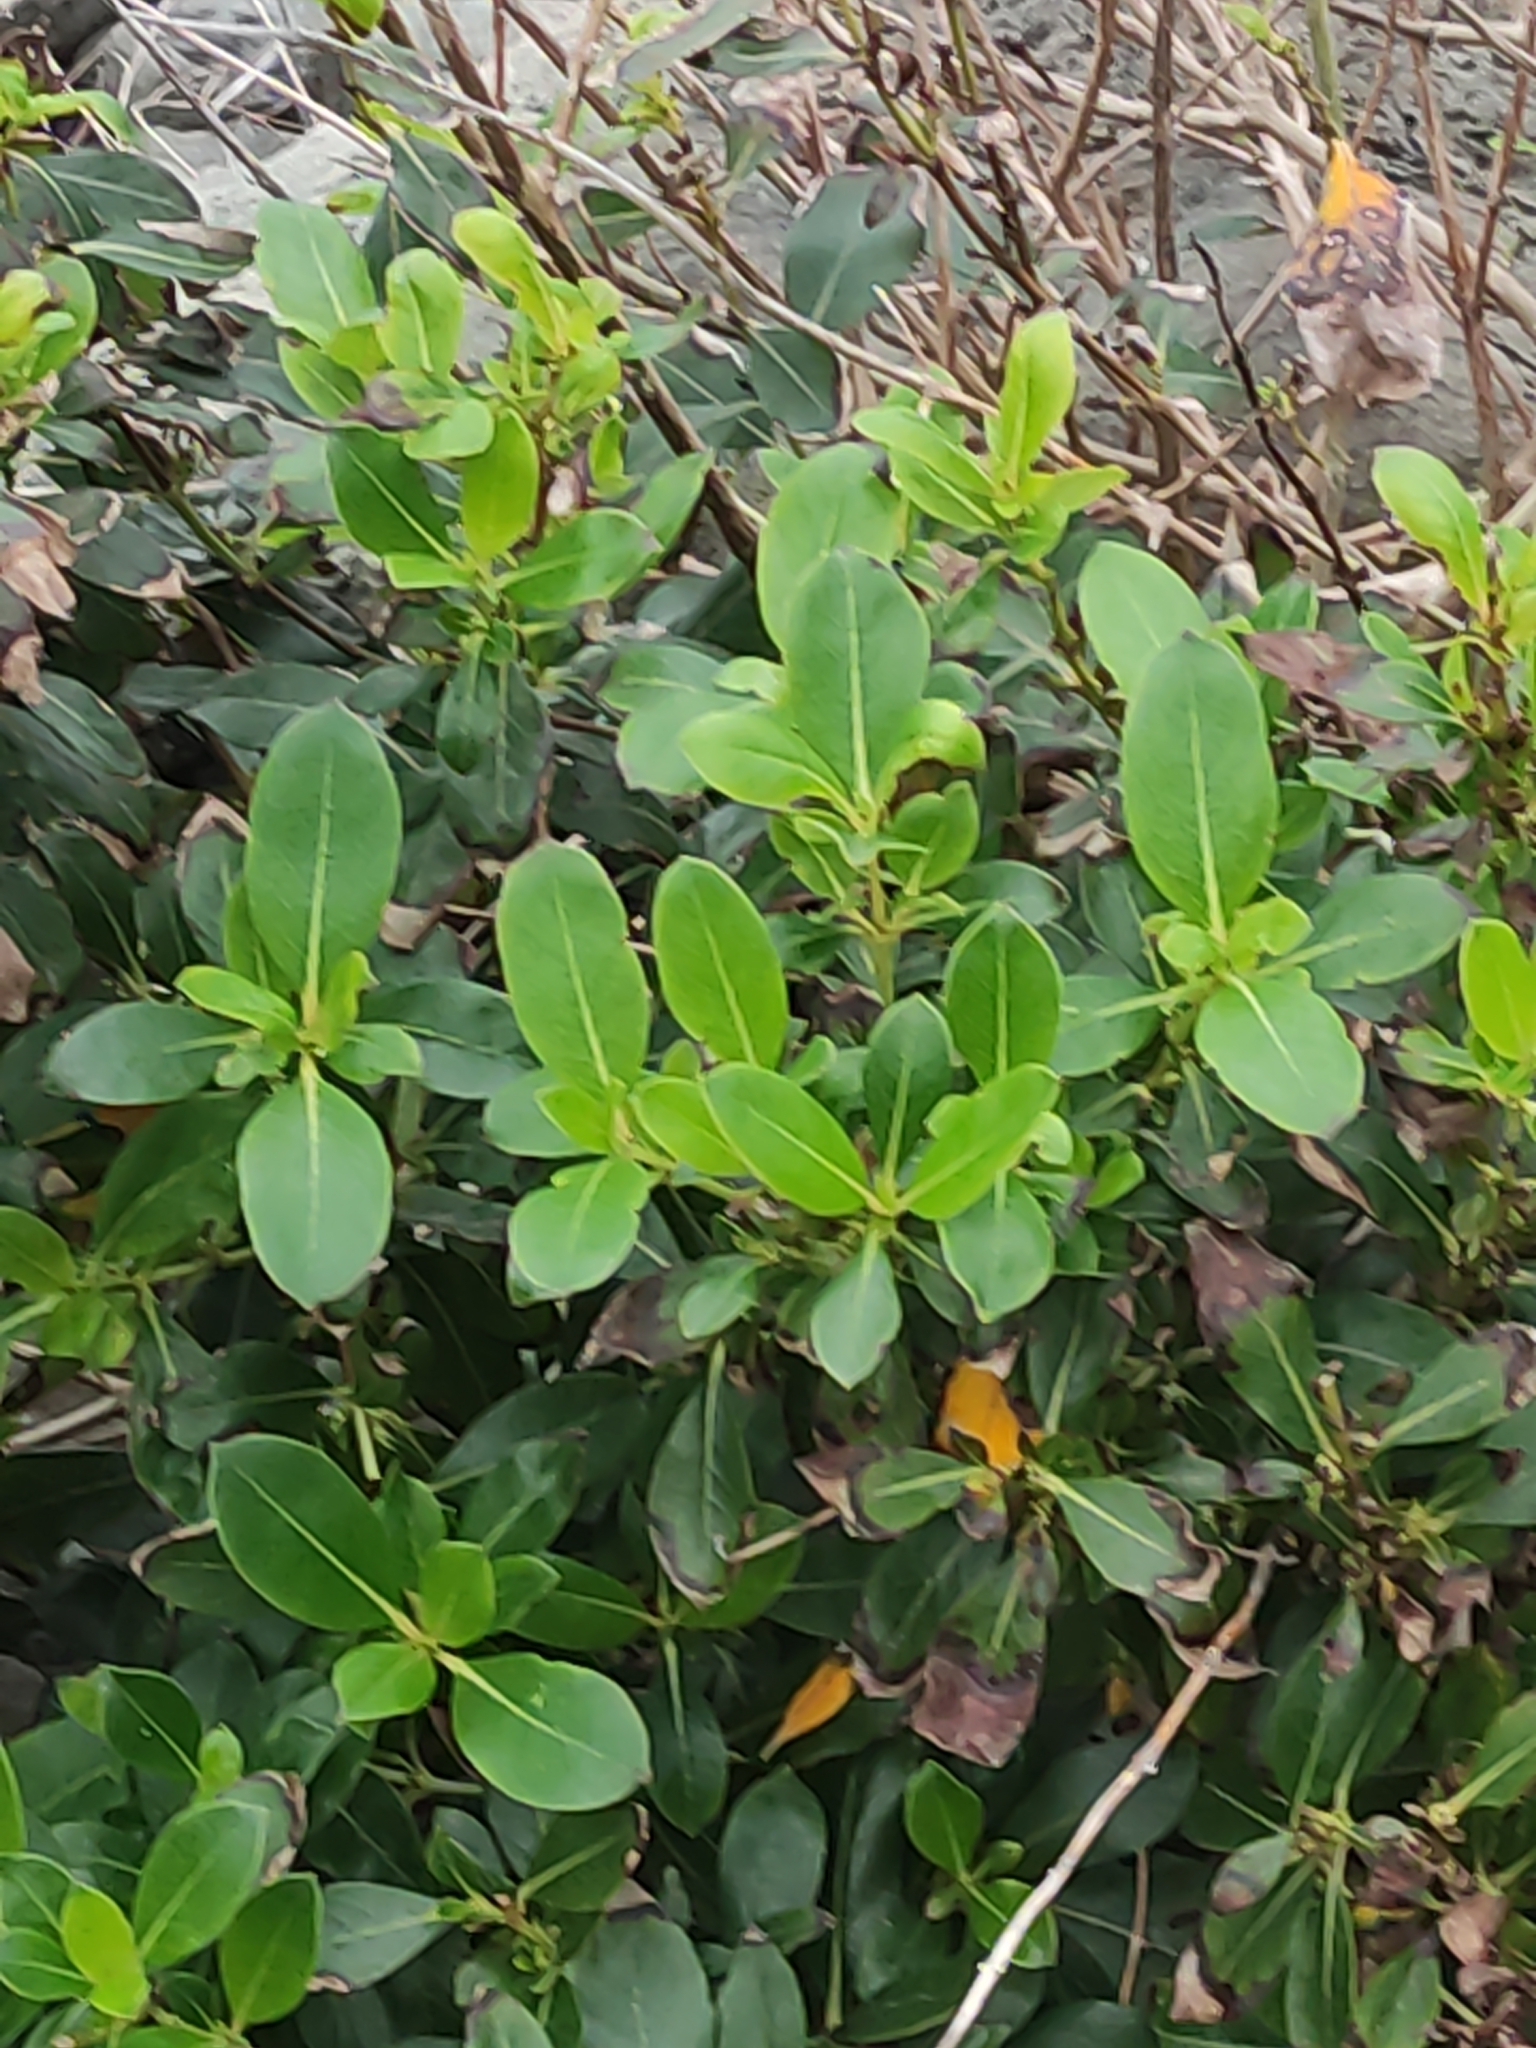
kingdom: Plantae
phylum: Tracheophyta
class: Magnoliopsida
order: Gentianales
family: Rubiaceae
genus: Coprosma
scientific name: Coprosma robusta
